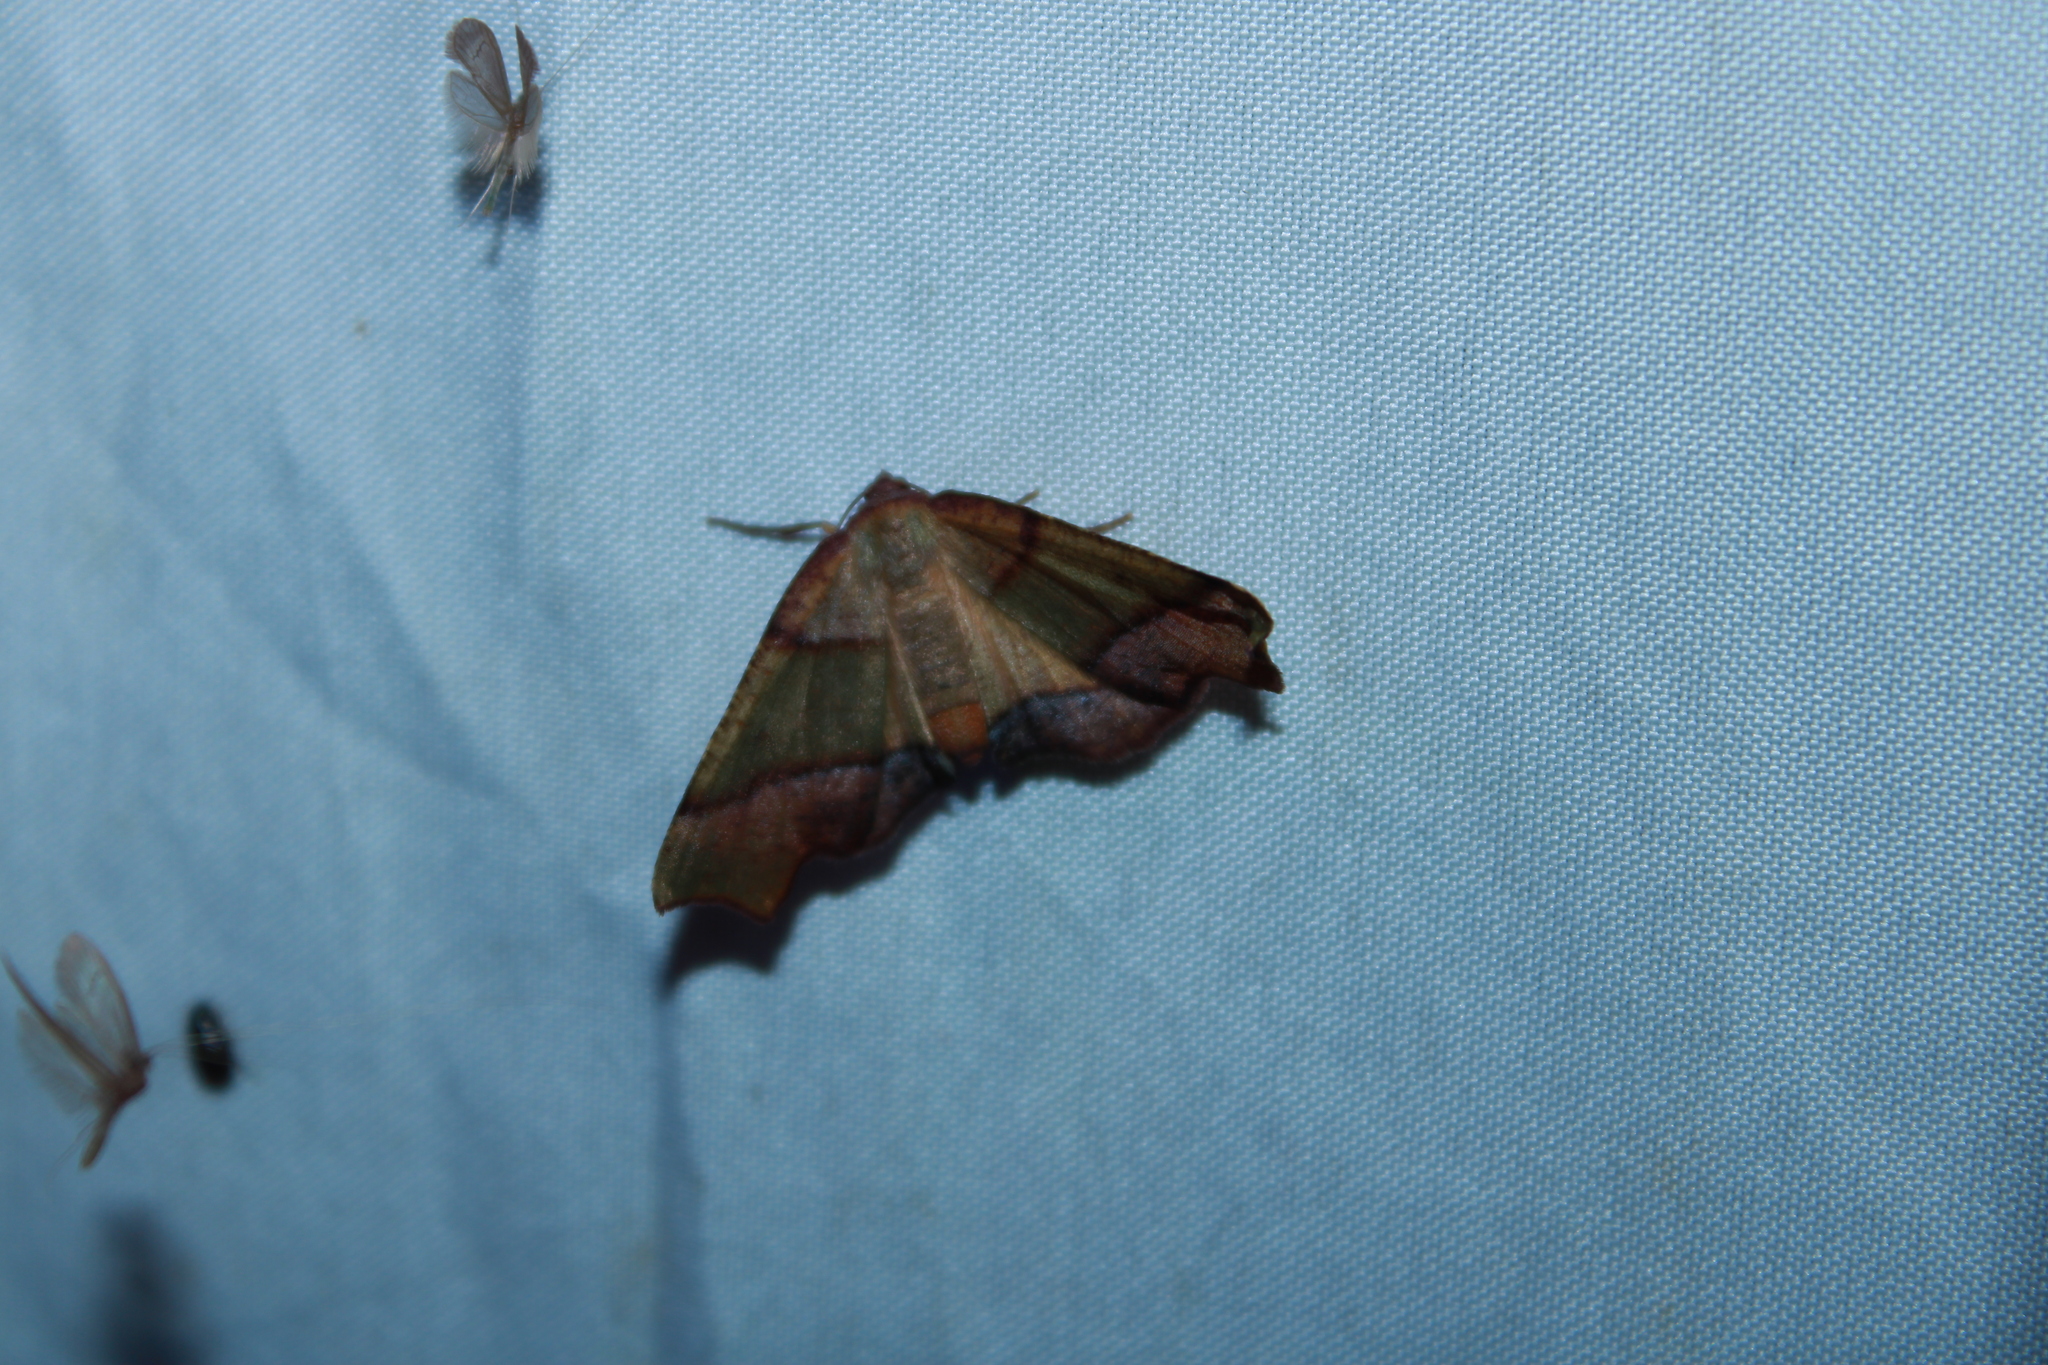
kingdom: Animalia
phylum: Arthropoda
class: Insecta
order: Lepidoptera
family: Geometridae
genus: Plagodis
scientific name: Plagodis phlogosaria
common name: Straight-lined plagodis
